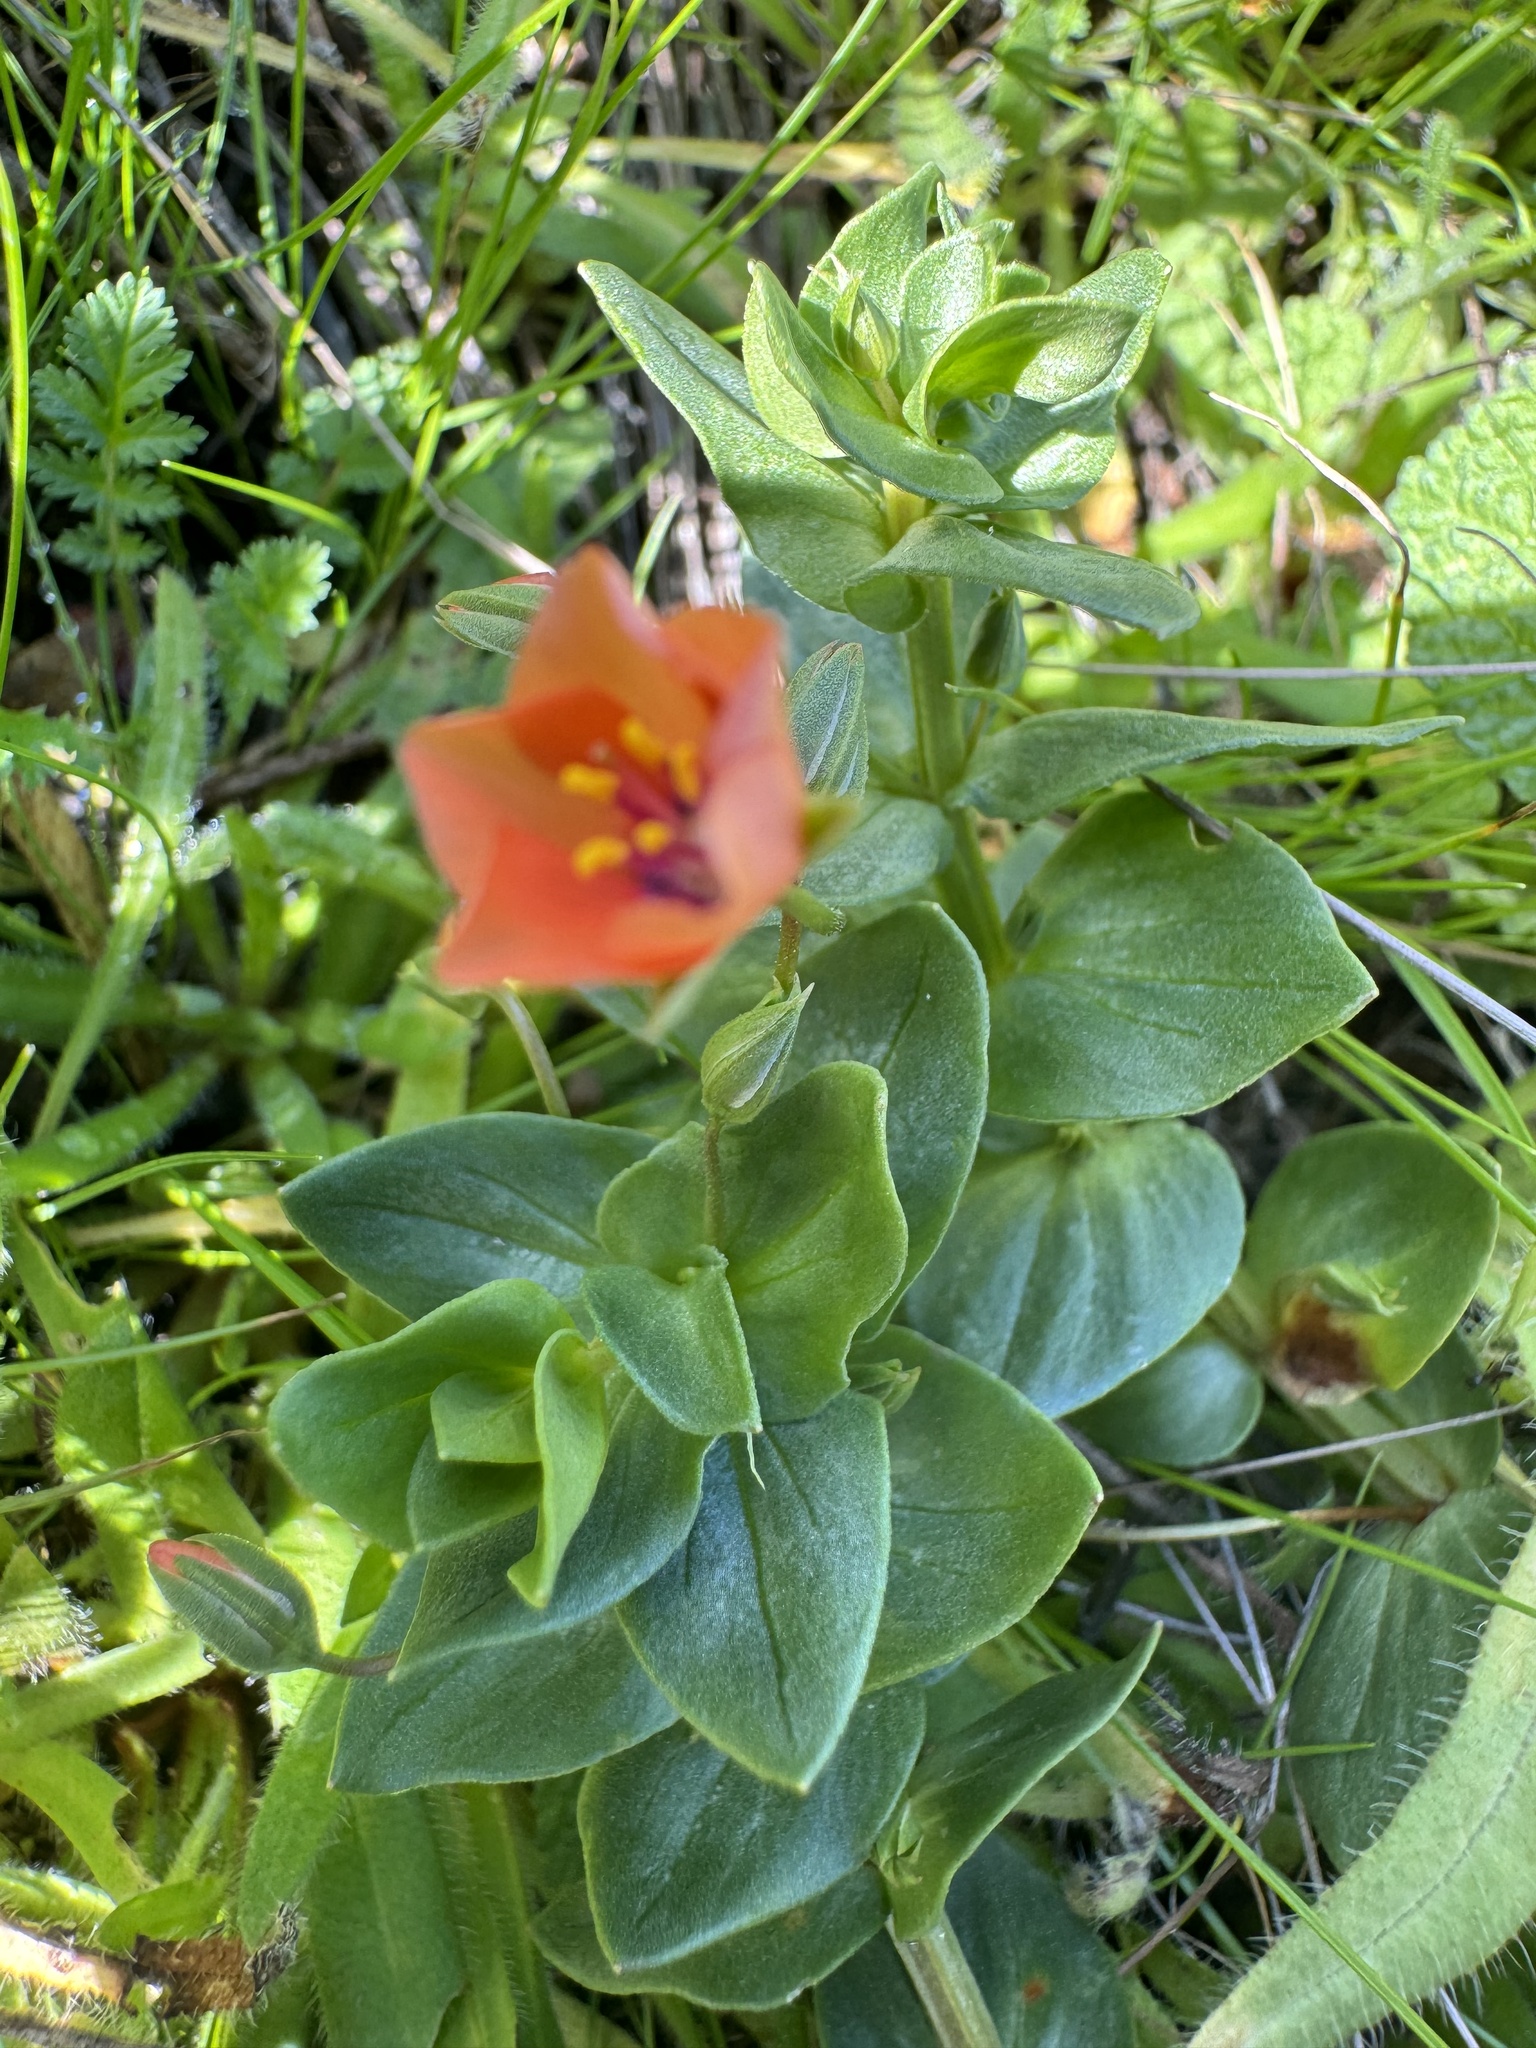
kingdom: Plantae
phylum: Tracheophyta
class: Magnoliopsida
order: Ericales
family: Primulaceae
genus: Lysimachia
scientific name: Lysimachia arvensis
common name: Scarlet pimpernel
